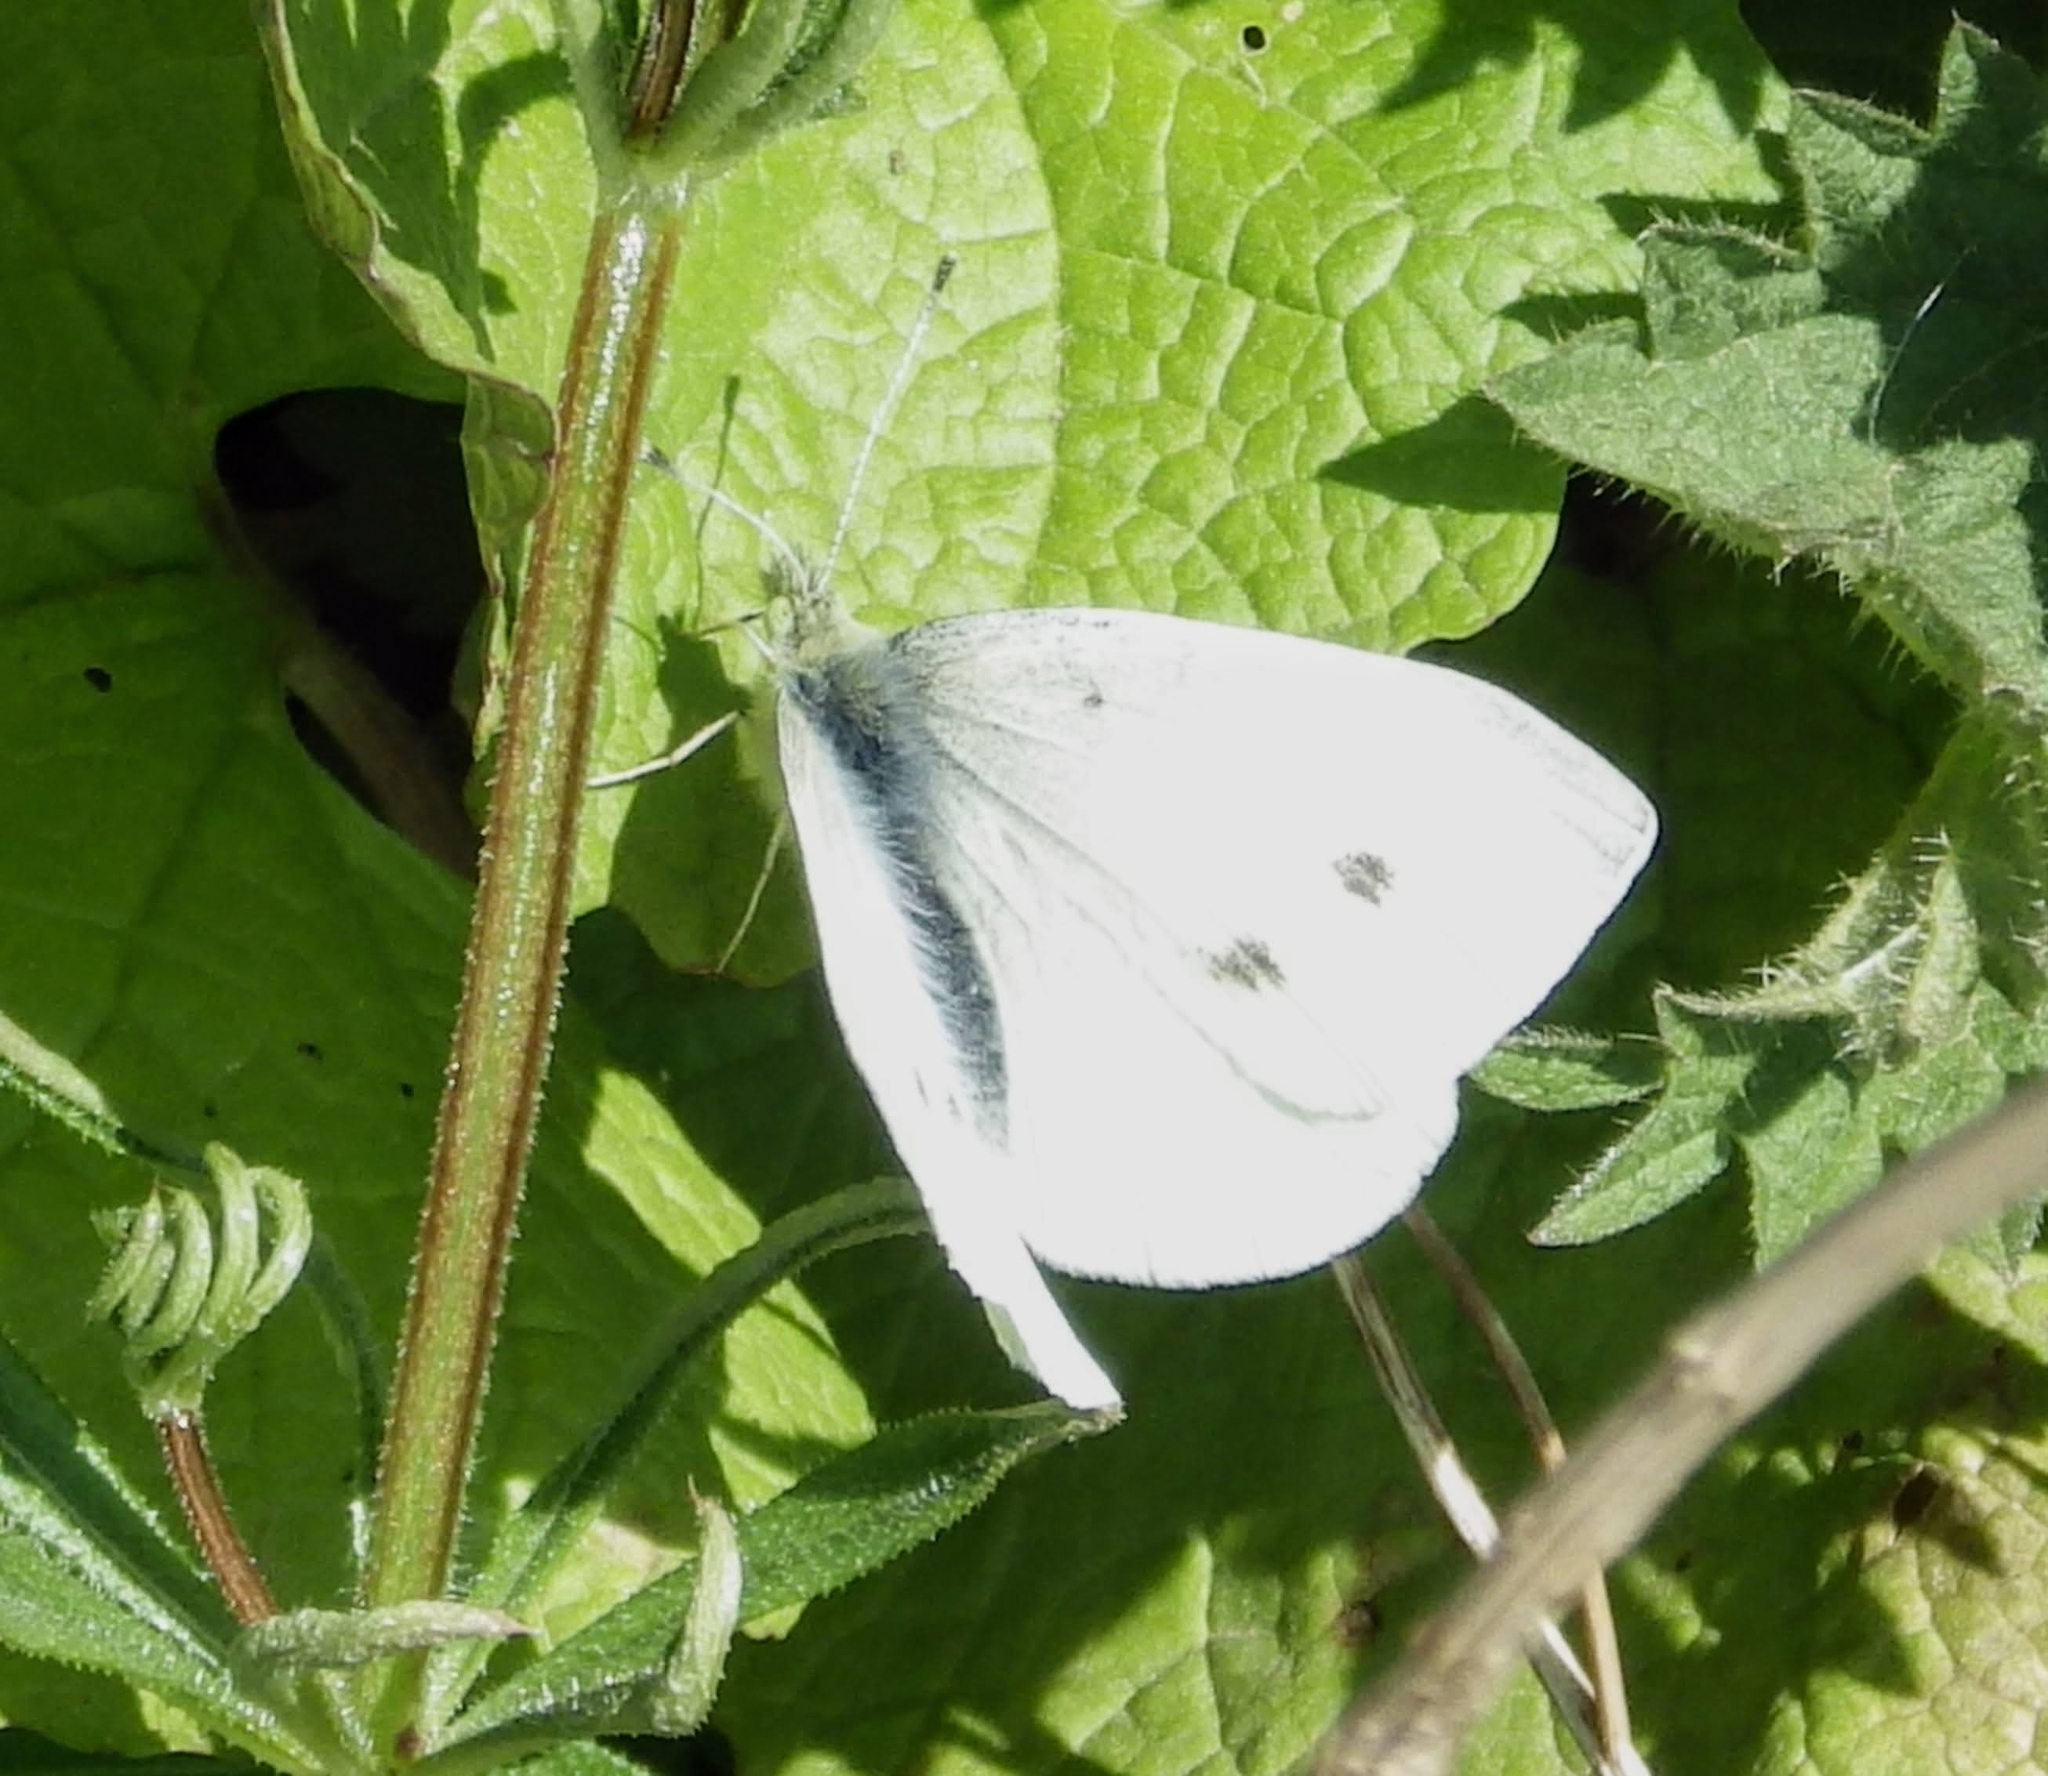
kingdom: Animalia
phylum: Arthropoda
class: Insecta
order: Lepidoptera
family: Pieridae
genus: Pieris
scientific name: Pieris rapae
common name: Small white
